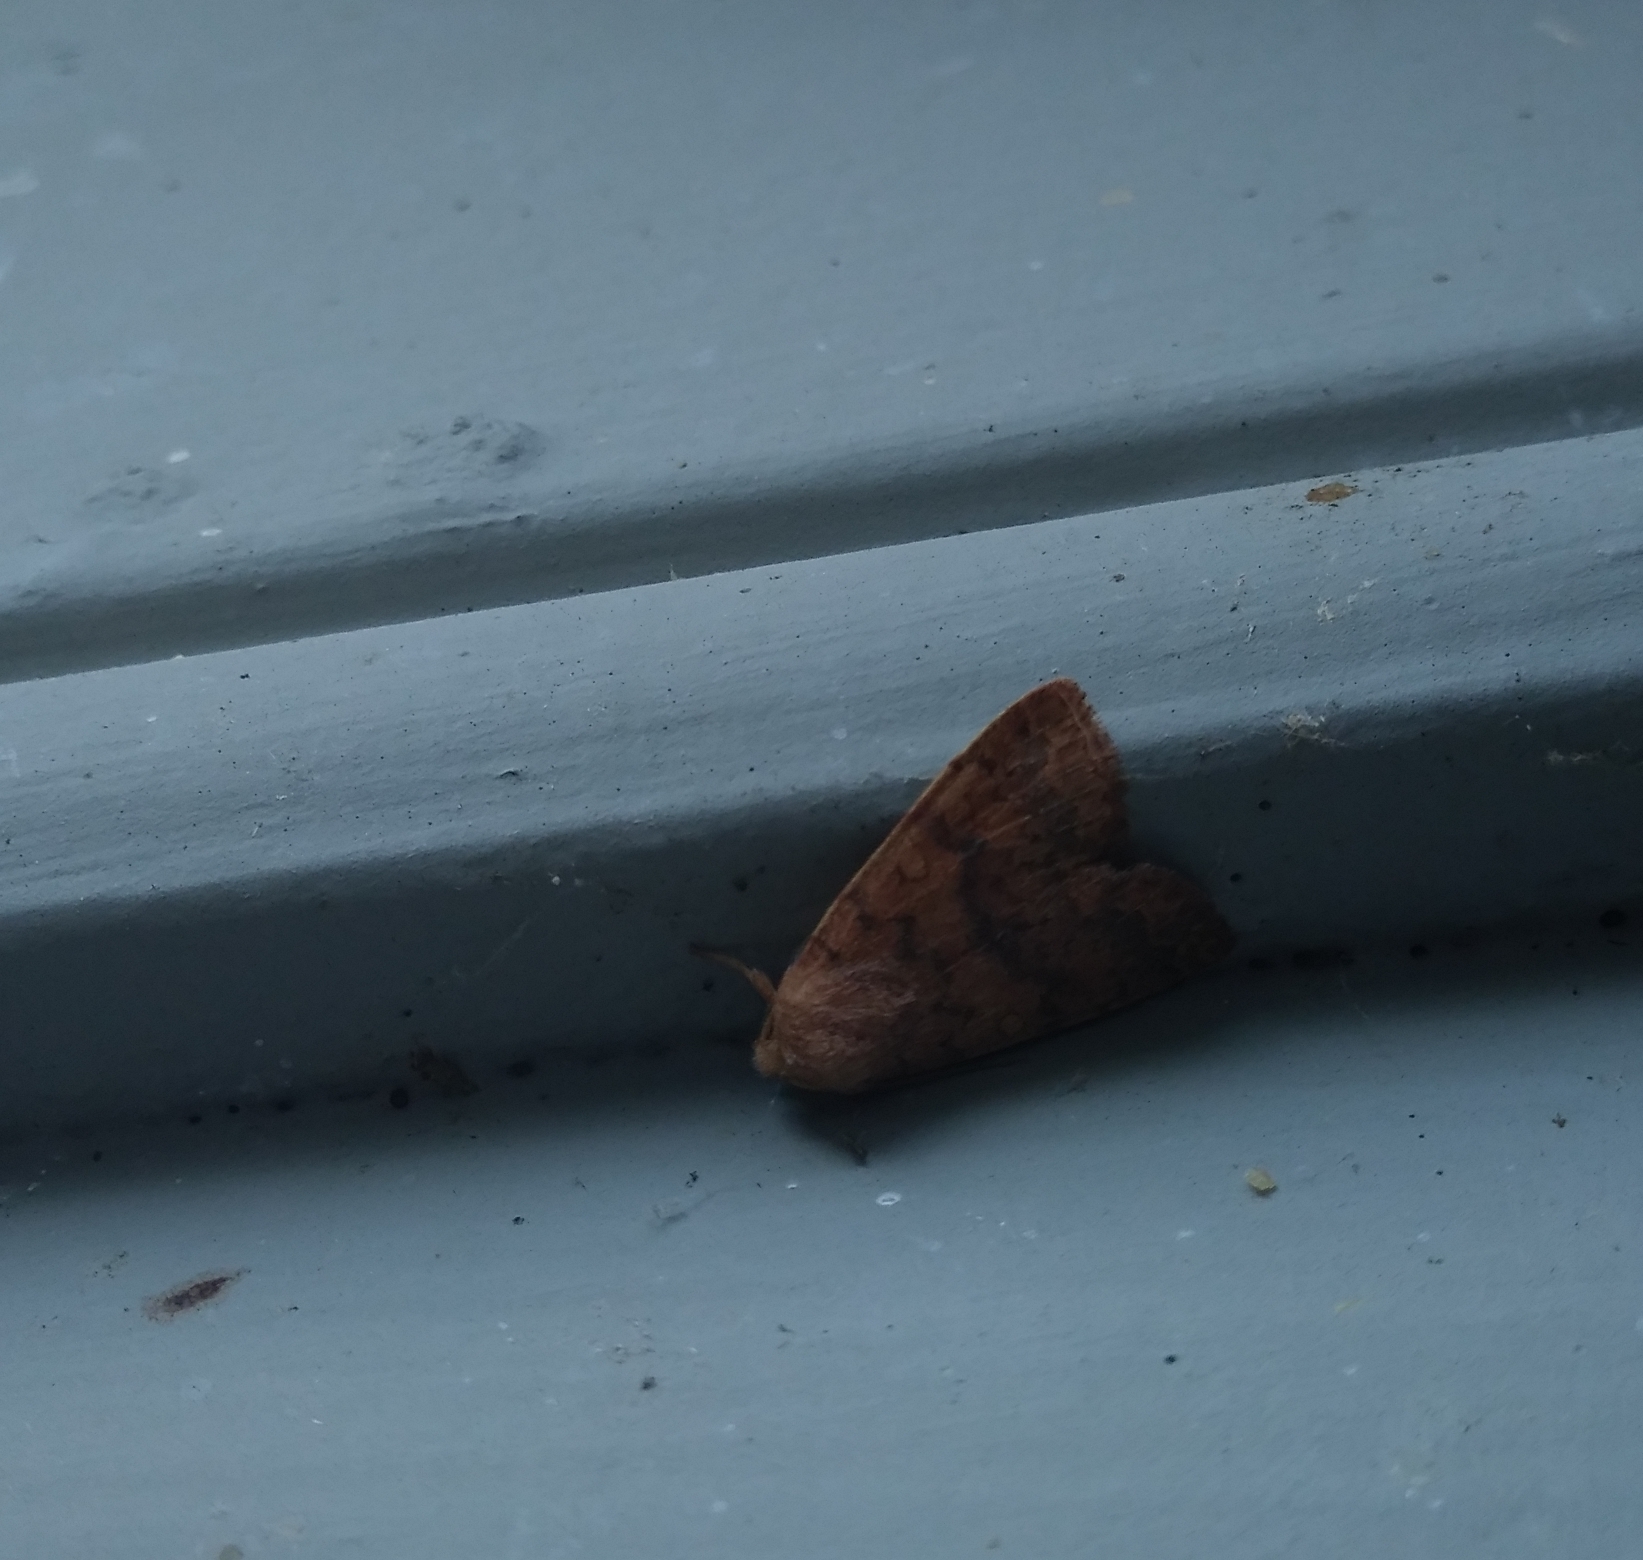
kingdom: Animalia
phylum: Arthropoda
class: Insecta
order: Lepidoptera
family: Noctuidae
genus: Agrochola
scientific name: Agrochola bicolorago
